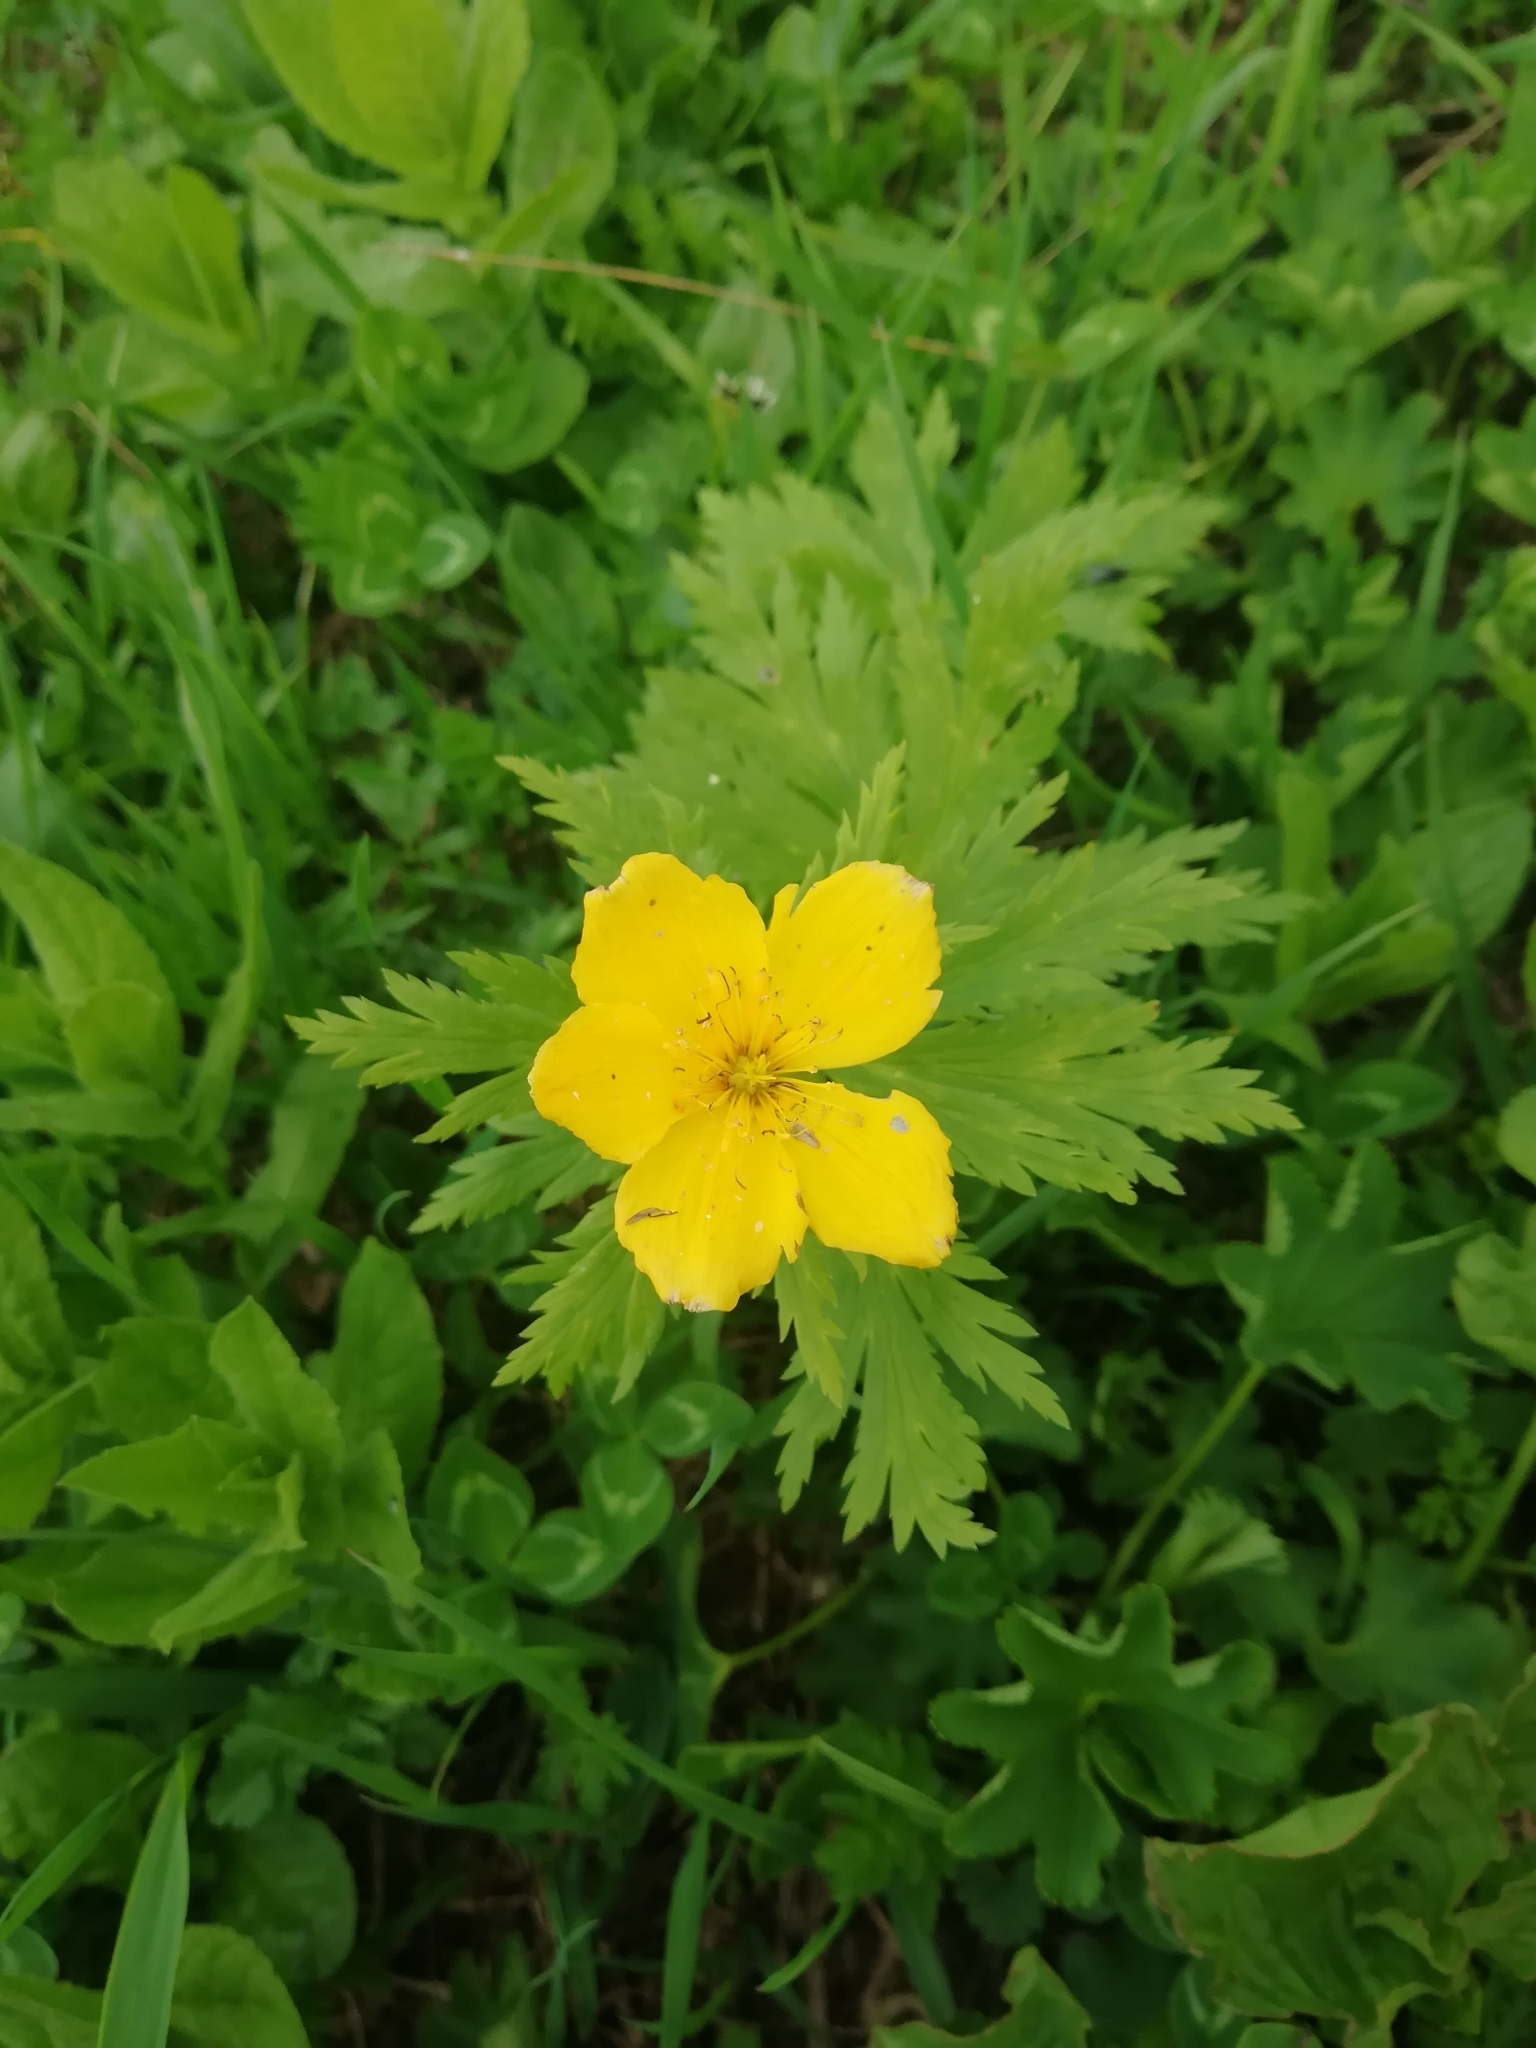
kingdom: Plantae
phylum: Tracheophyta
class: Magnoliopsida
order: Ranunculales
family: Ranunculaceae
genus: Trollius
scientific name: Trollius ranunculinus
